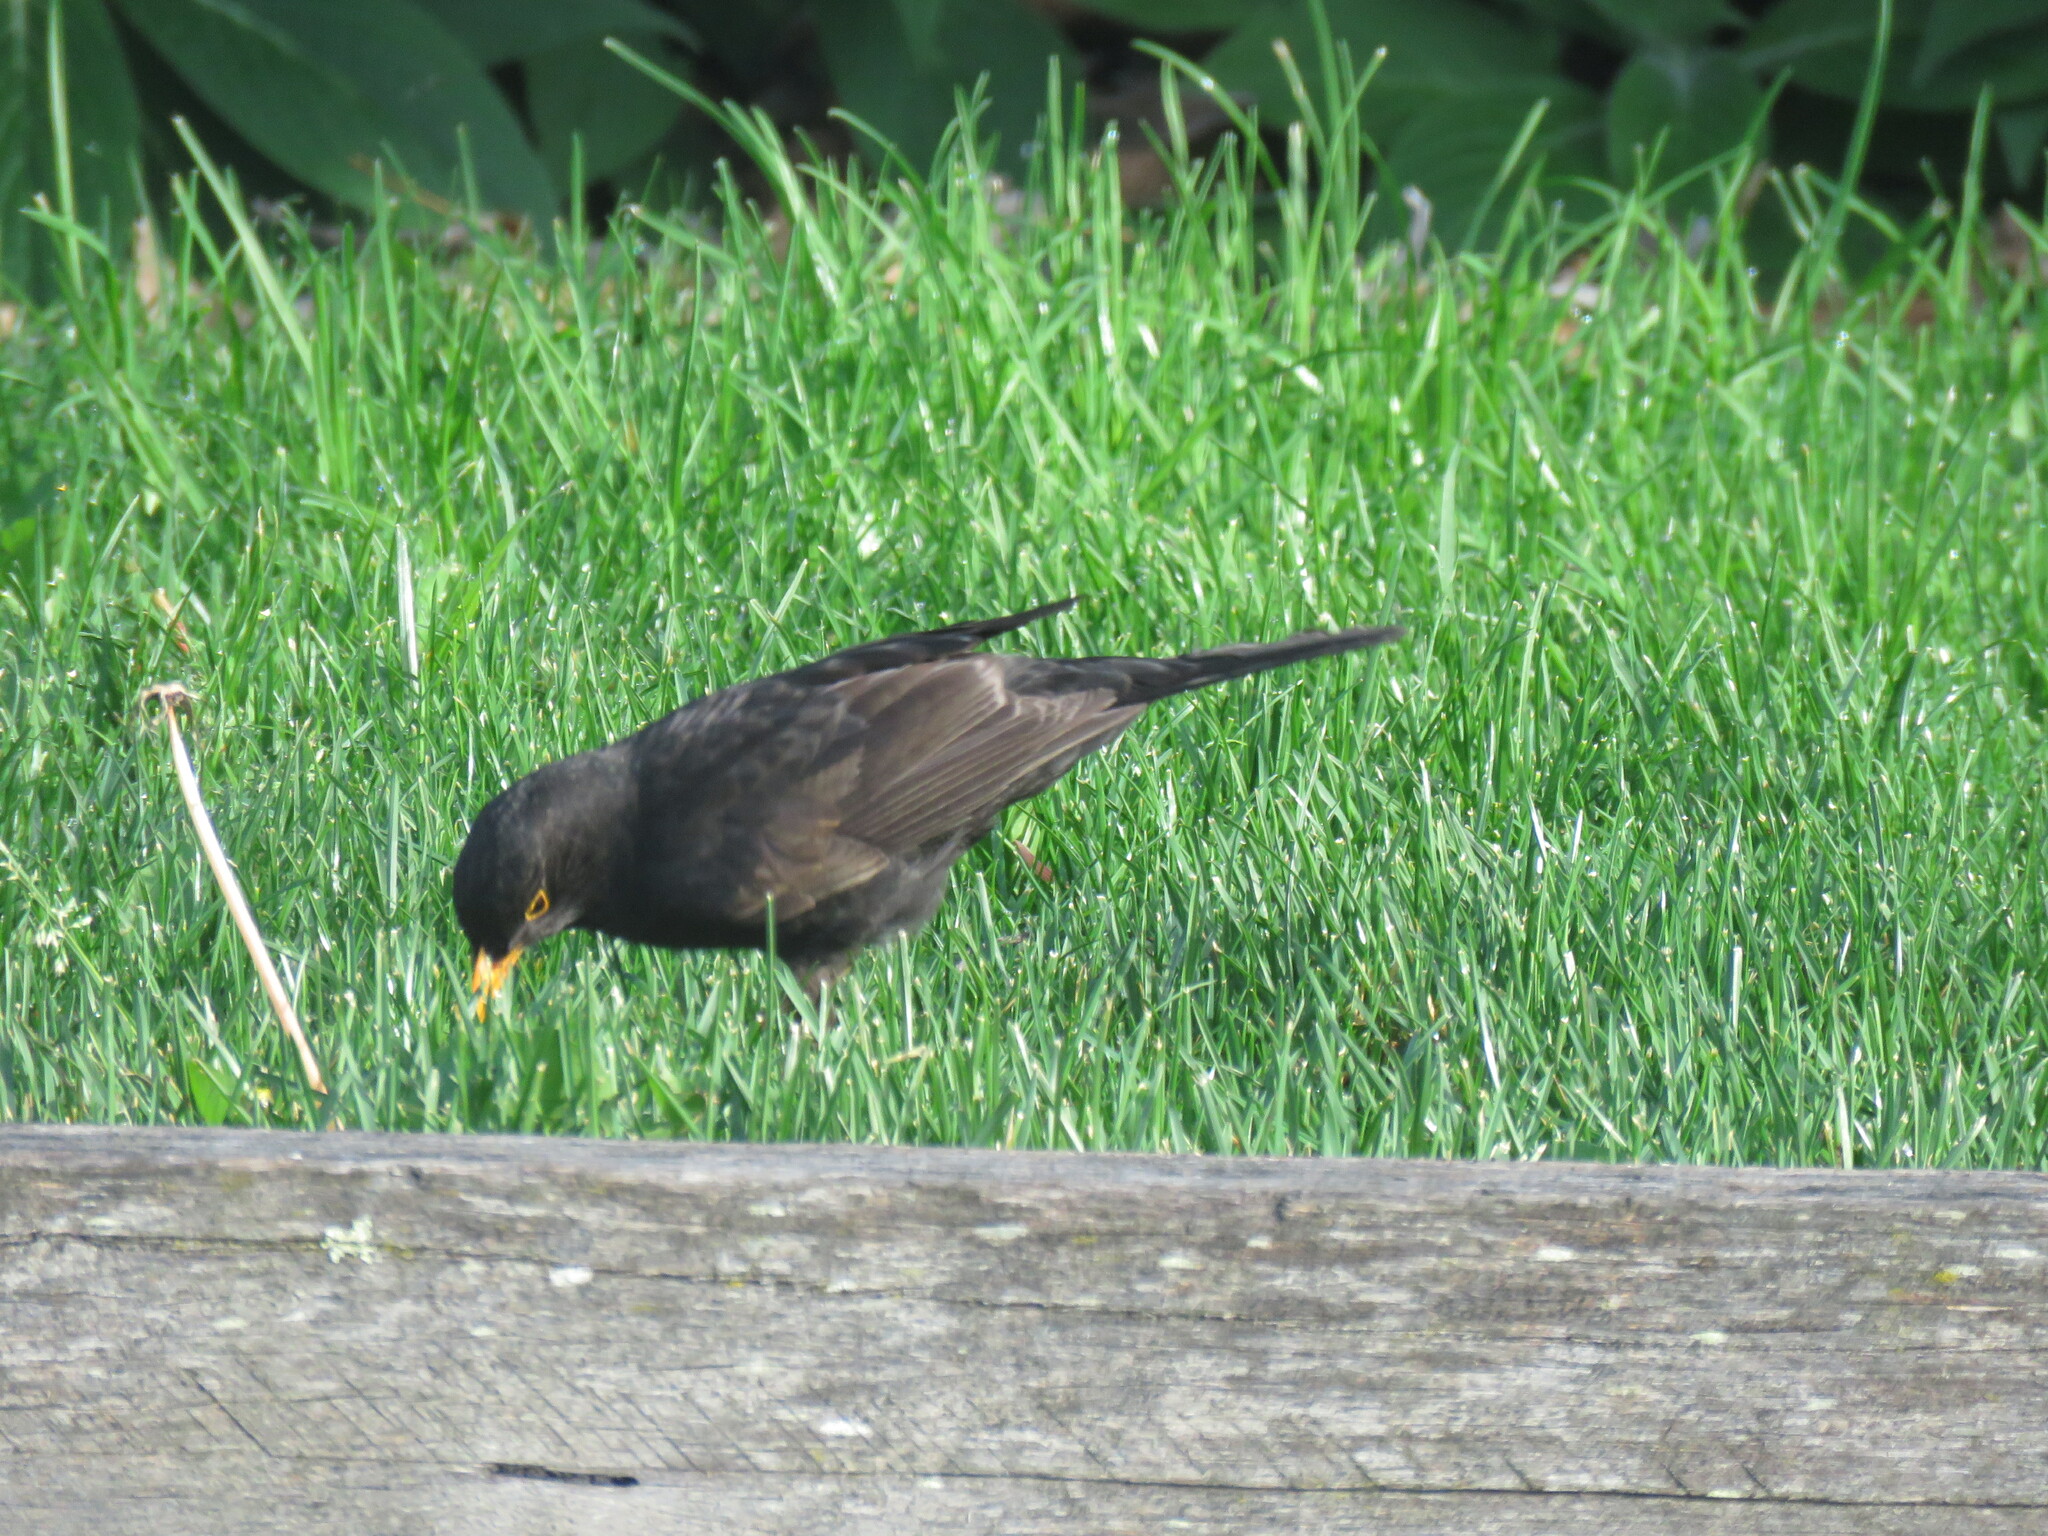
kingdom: Animalia
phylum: Chordata
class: Aves
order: Passeriformes
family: Turdidae
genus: Turdus
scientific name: Turdus merula
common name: Common blackbird
